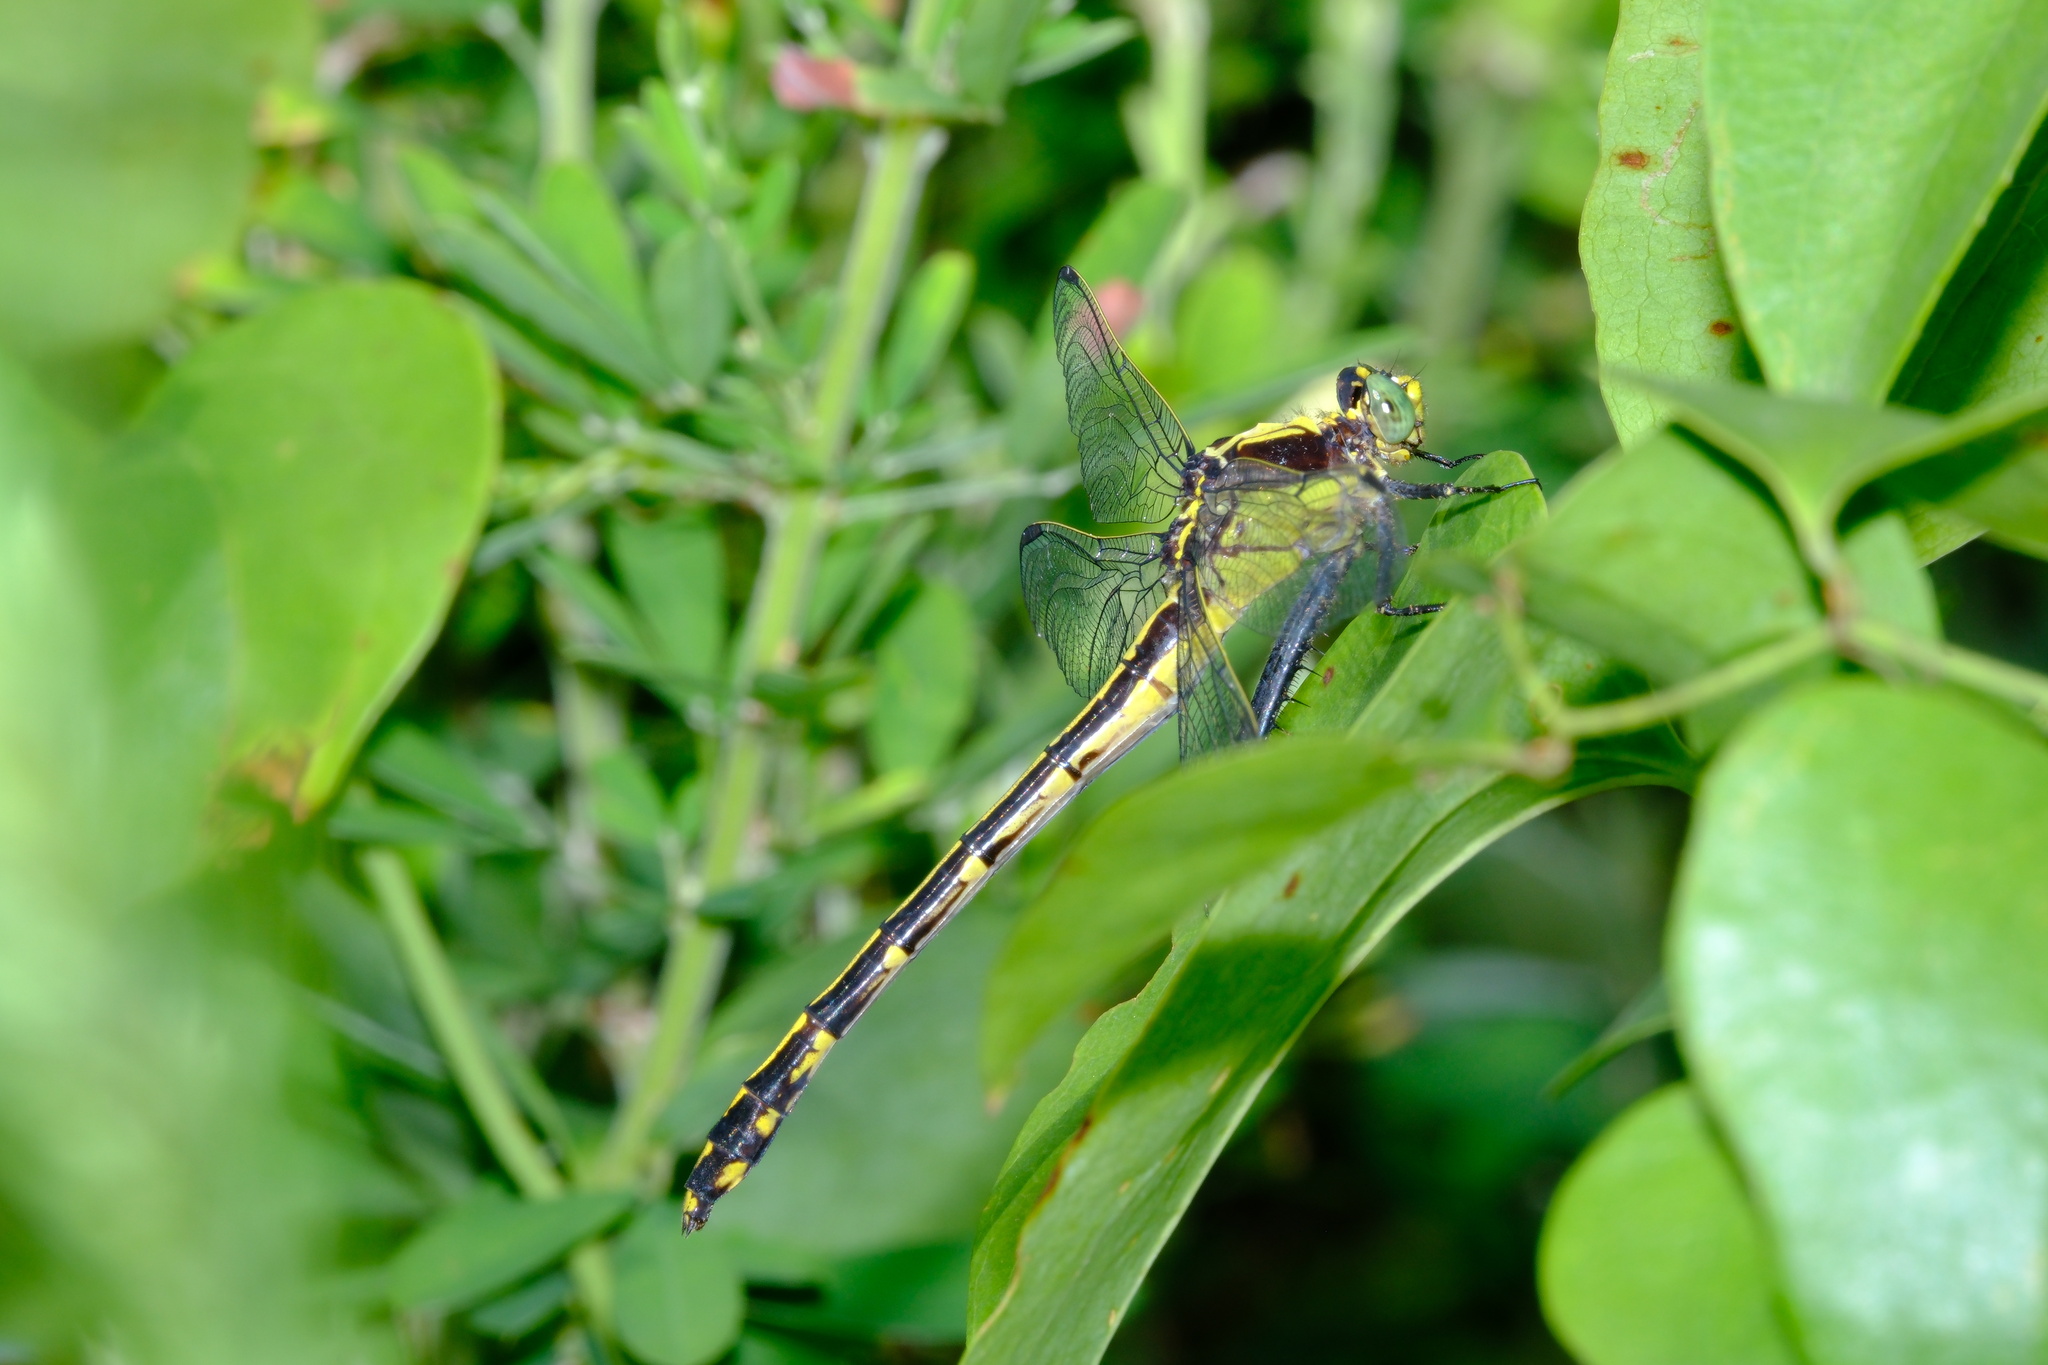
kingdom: Animalia
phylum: Arthropoda
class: Insecta
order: Odonata
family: Gomphidae
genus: Dromogomphus
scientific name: Dromogomphus spinosus
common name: Black-shouldered spinyleg
